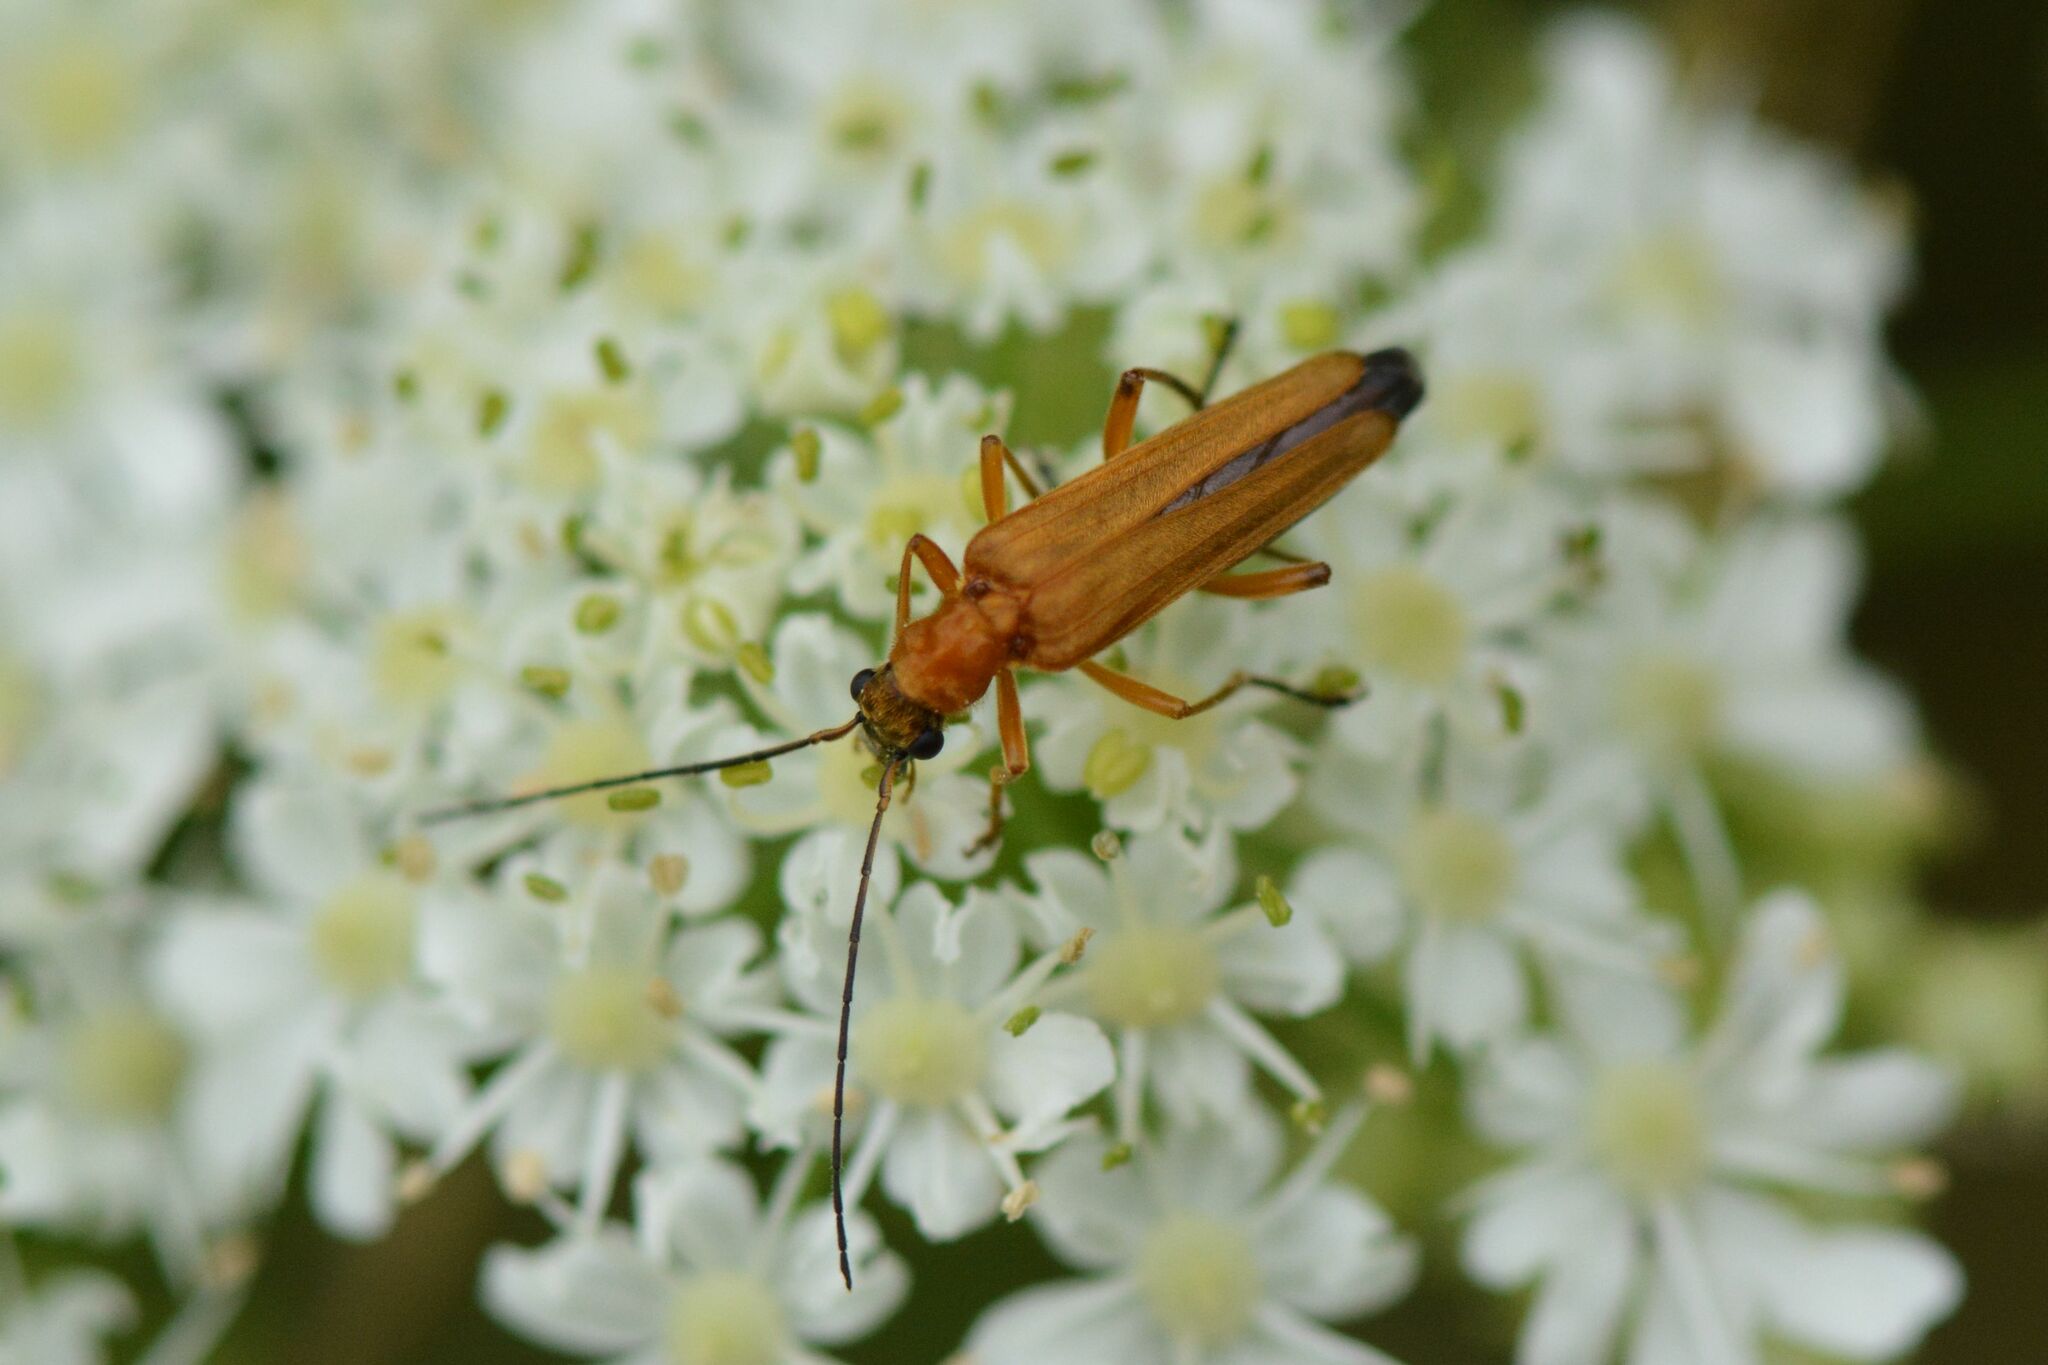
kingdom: Animalia
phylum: Arthropoda
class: Insecta
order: Coleoptera
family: Oedemeridae
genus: Oedemera
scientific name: Oedemera podagrariae
